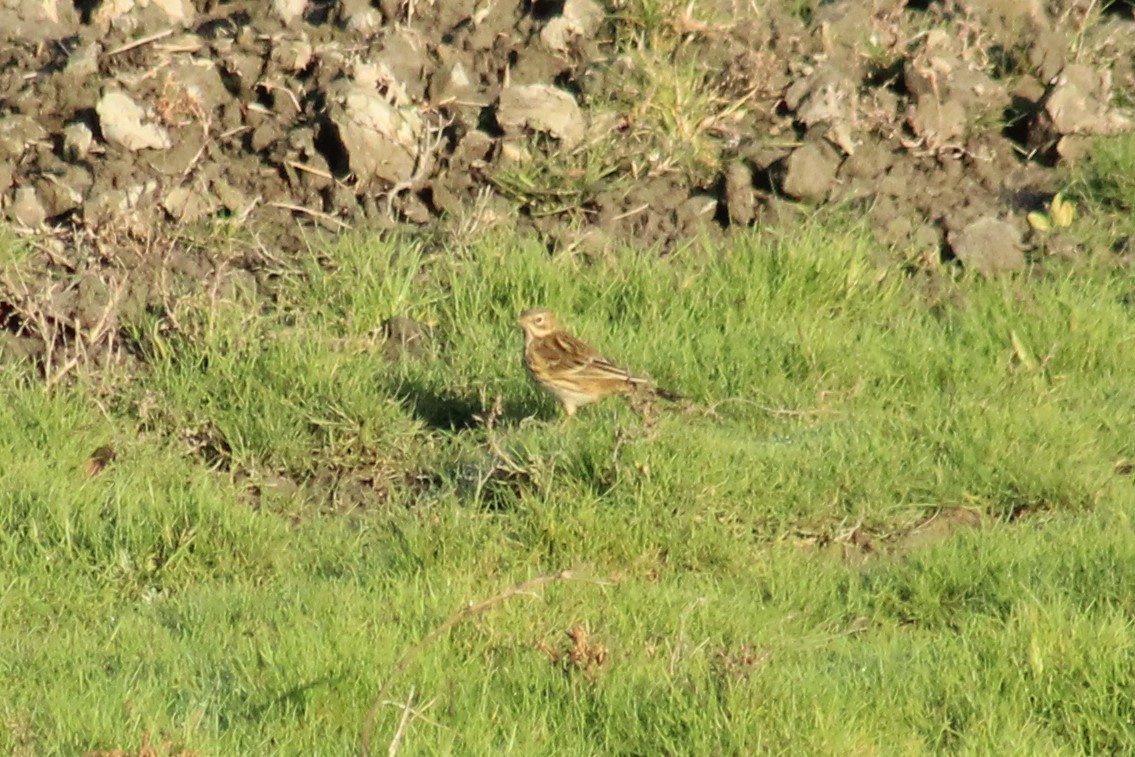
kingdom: Animalia
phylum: Chordata
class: Aves
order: Passeriformes
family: Motacillidae
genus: Anthus
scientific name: Anthus pratensis
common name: Meadow pipit
